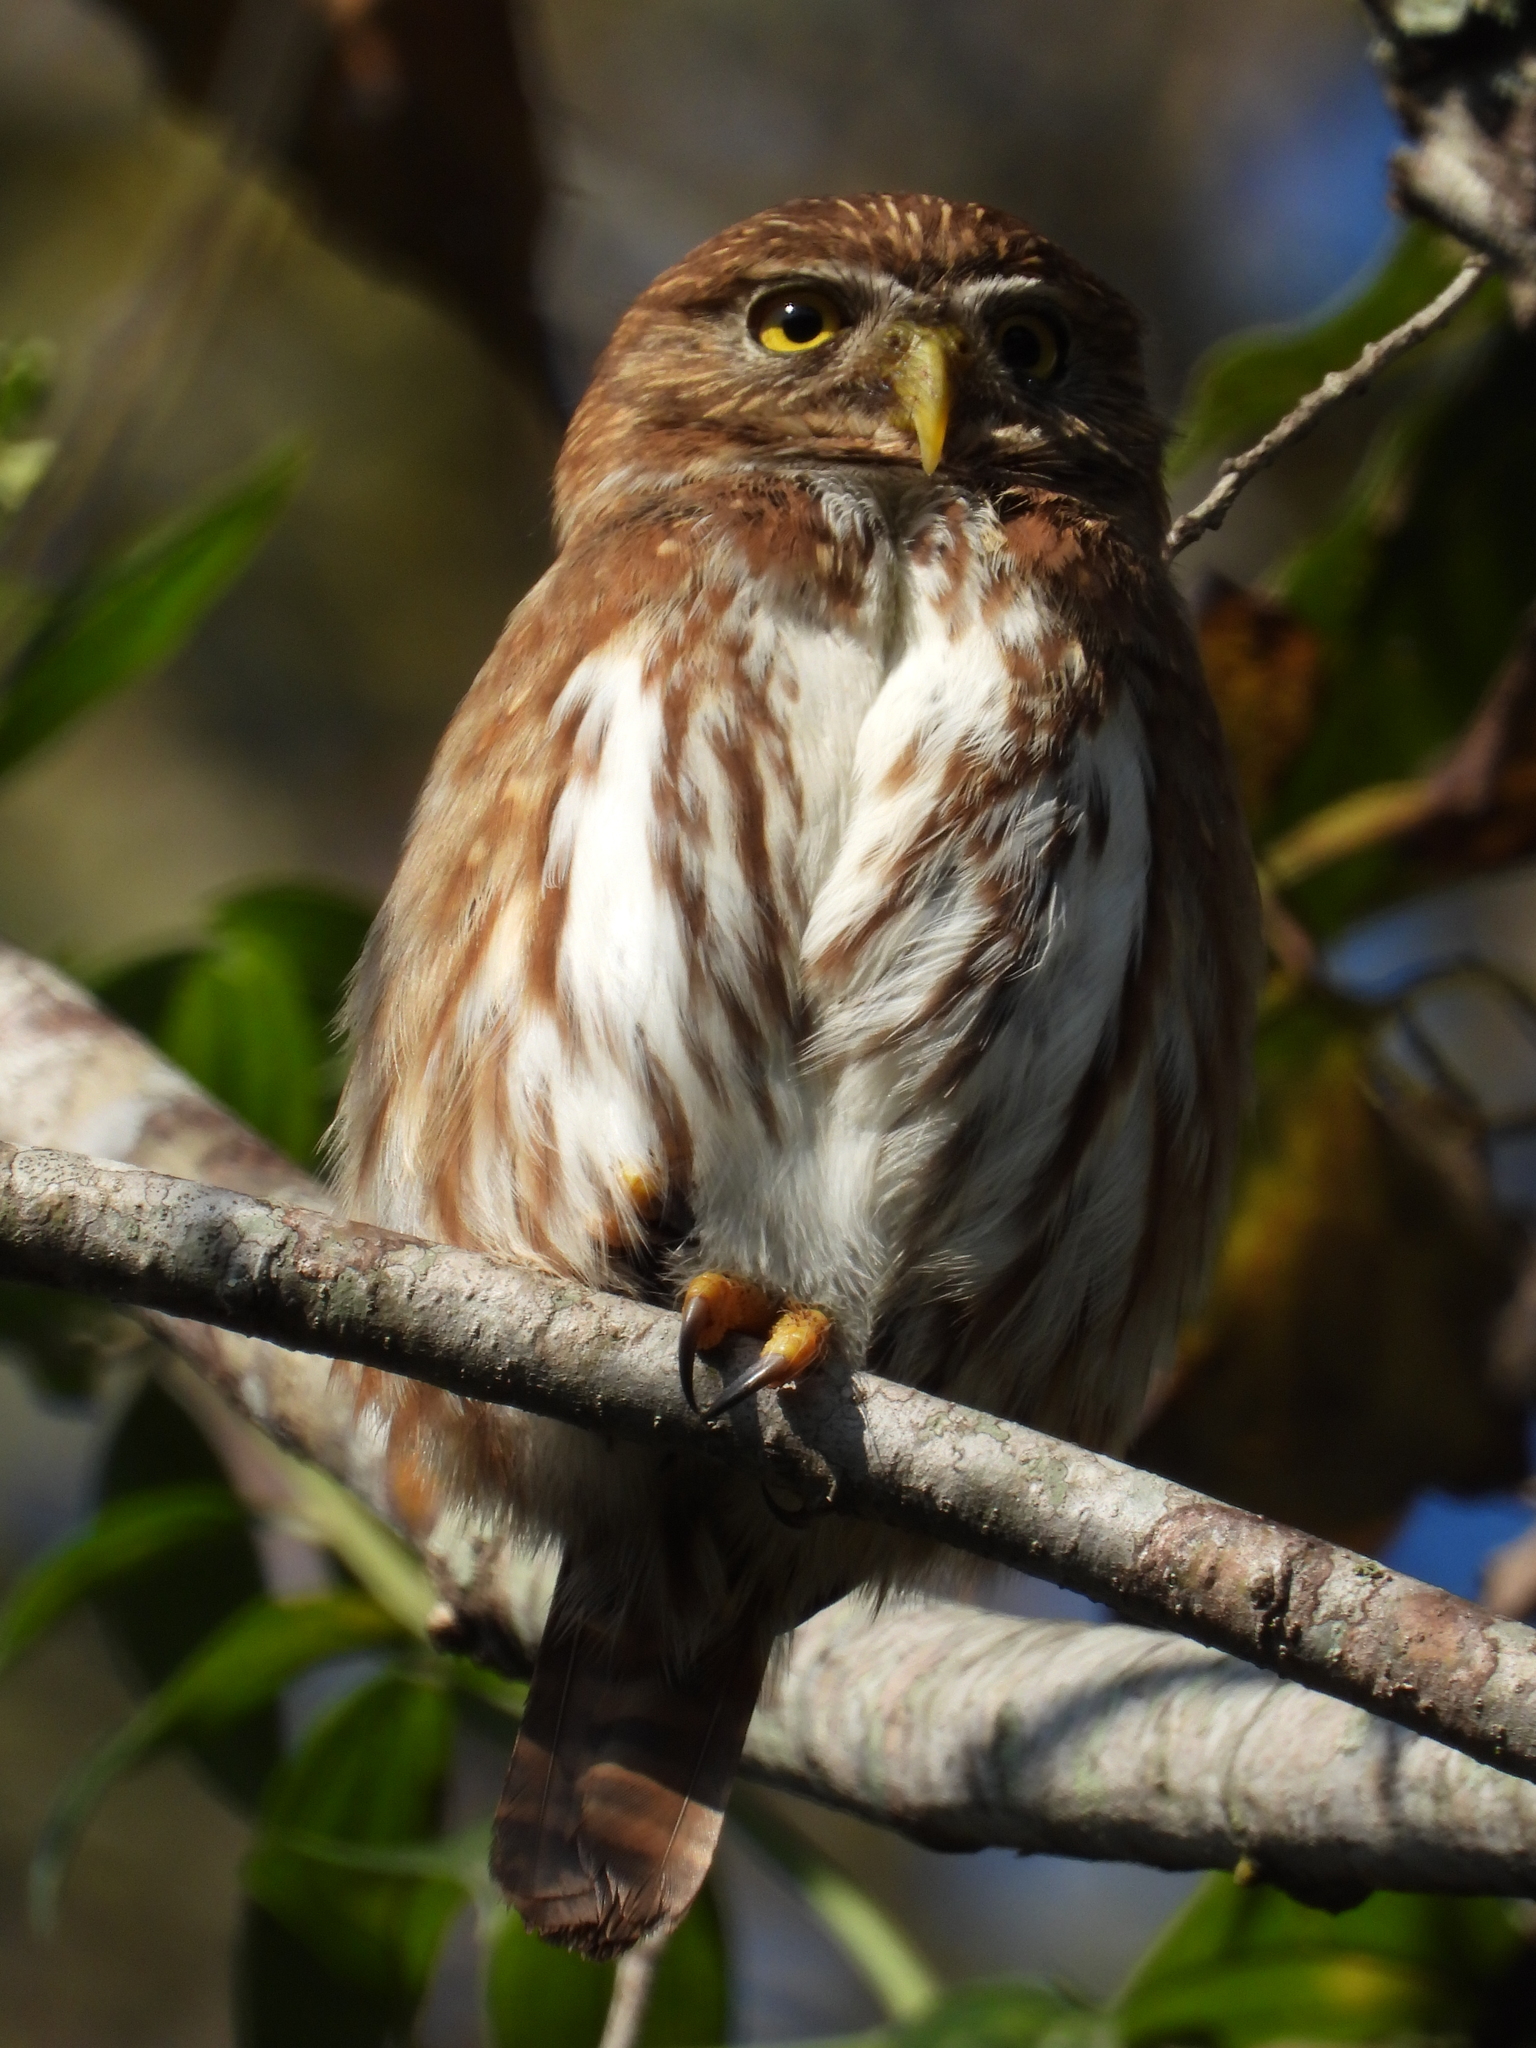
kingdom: Animalia
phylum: Chordata
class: Aves
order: Strigiformes
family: Strigidae
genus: Glaucidium
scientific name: Glaucidium brasilianum
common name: Ferruginous pygmy-owl
